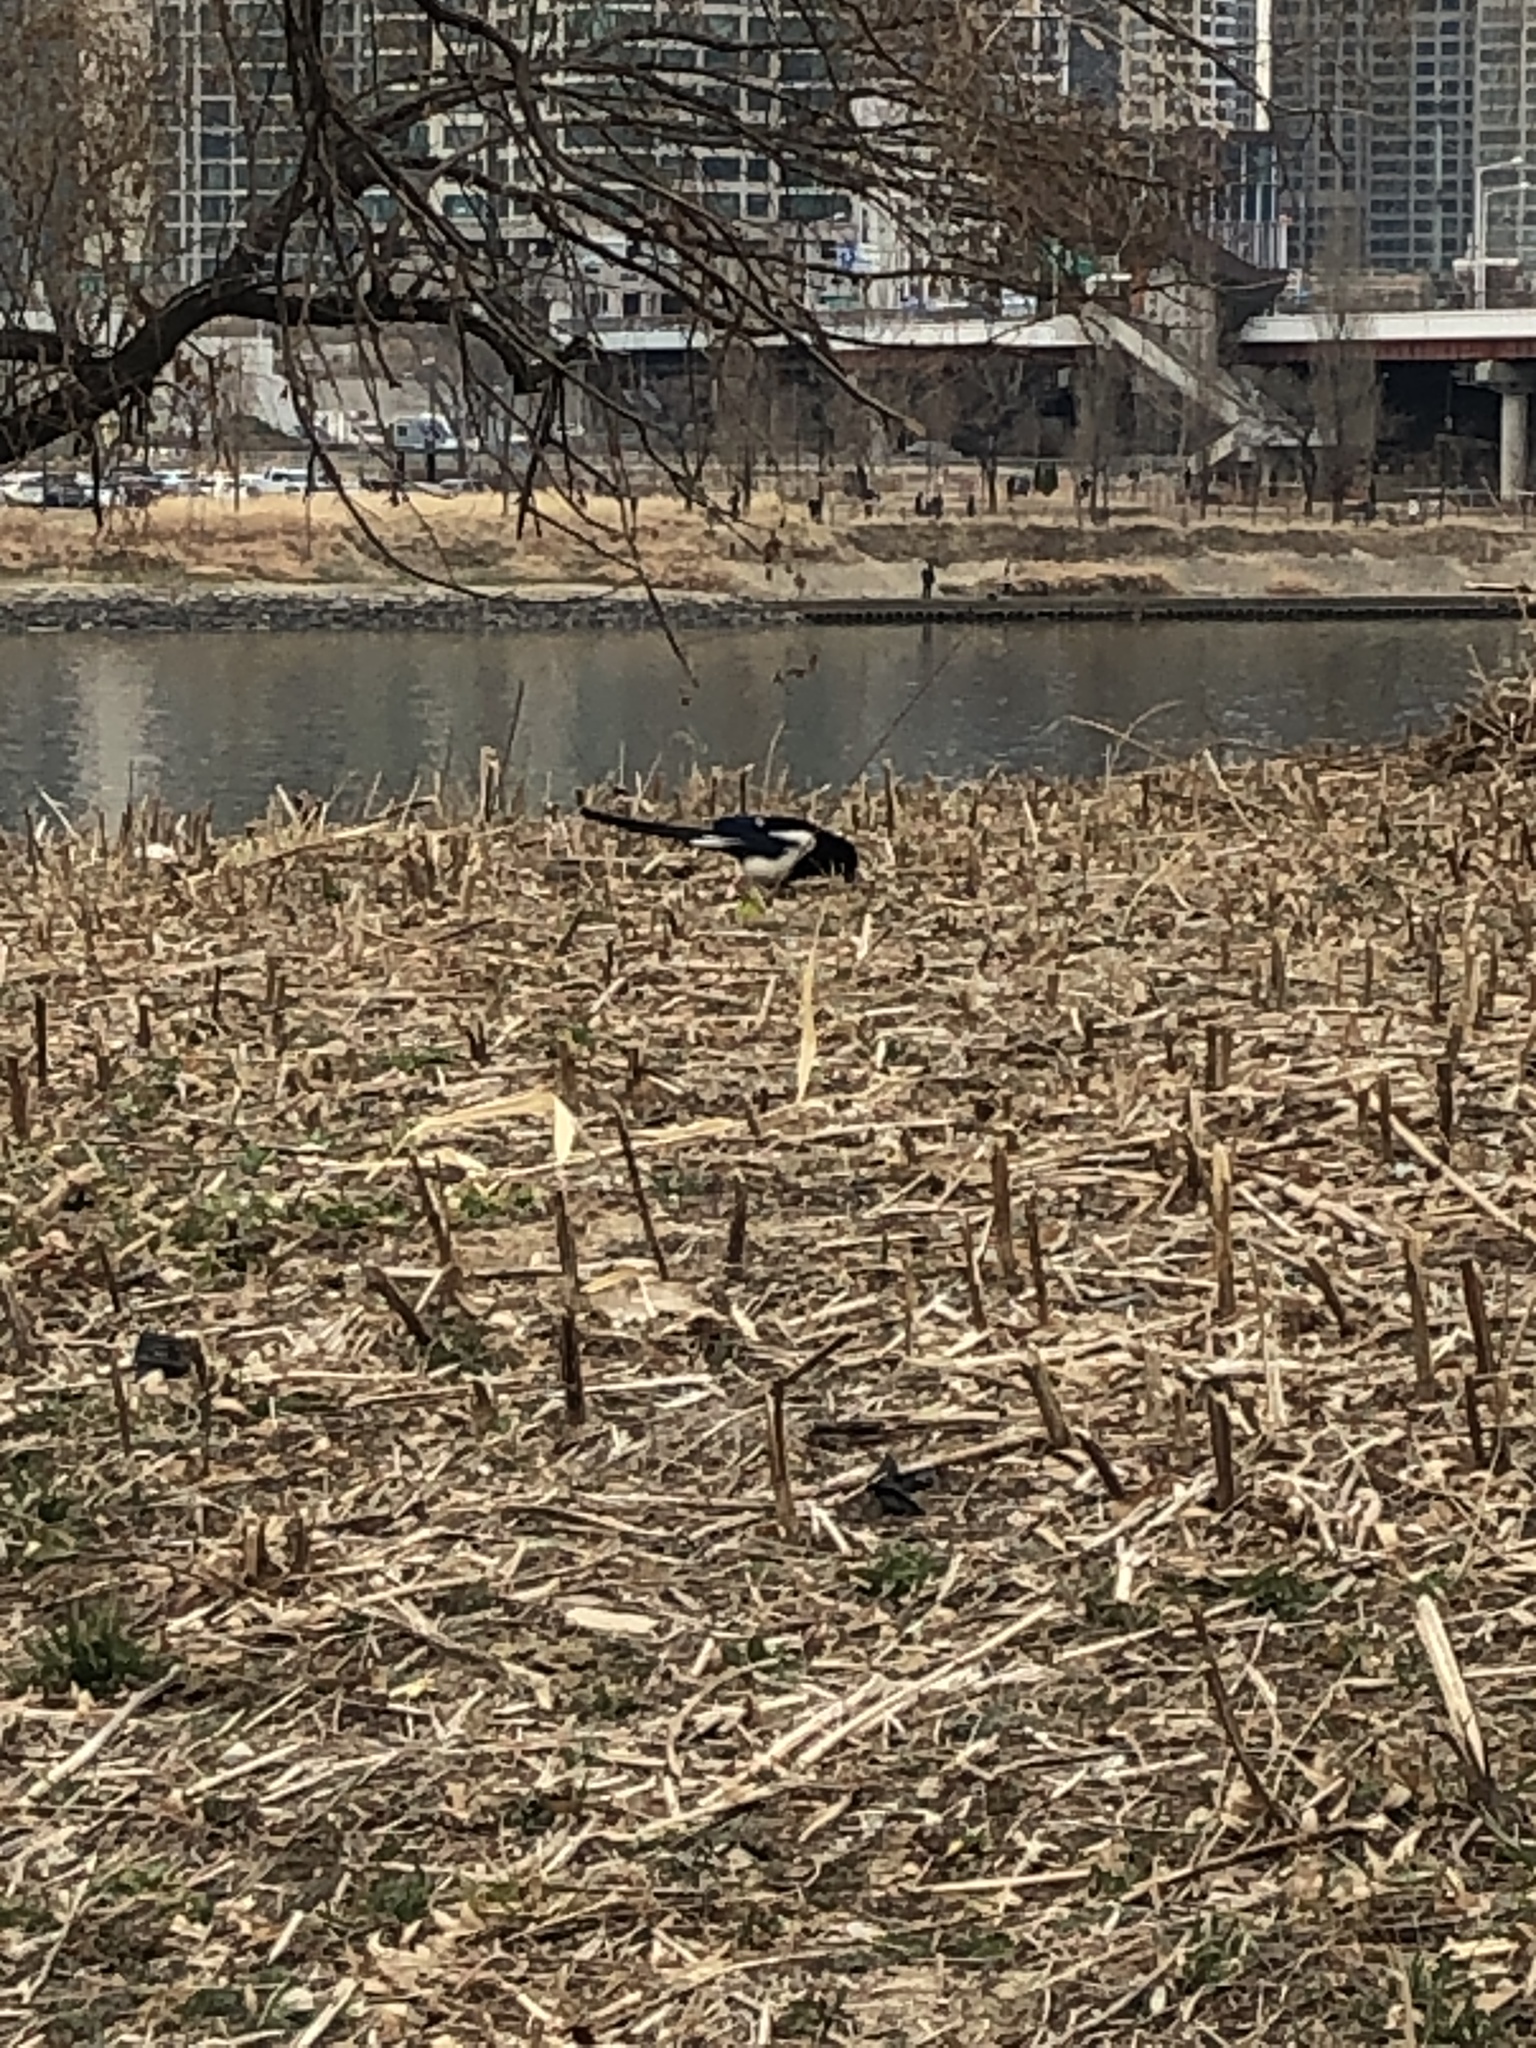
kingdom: Animalia
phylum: Chordata
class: Aves
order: Passeriformes
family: Corvidae
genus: Pica
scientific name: Pica serica
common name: Oriental magpie
